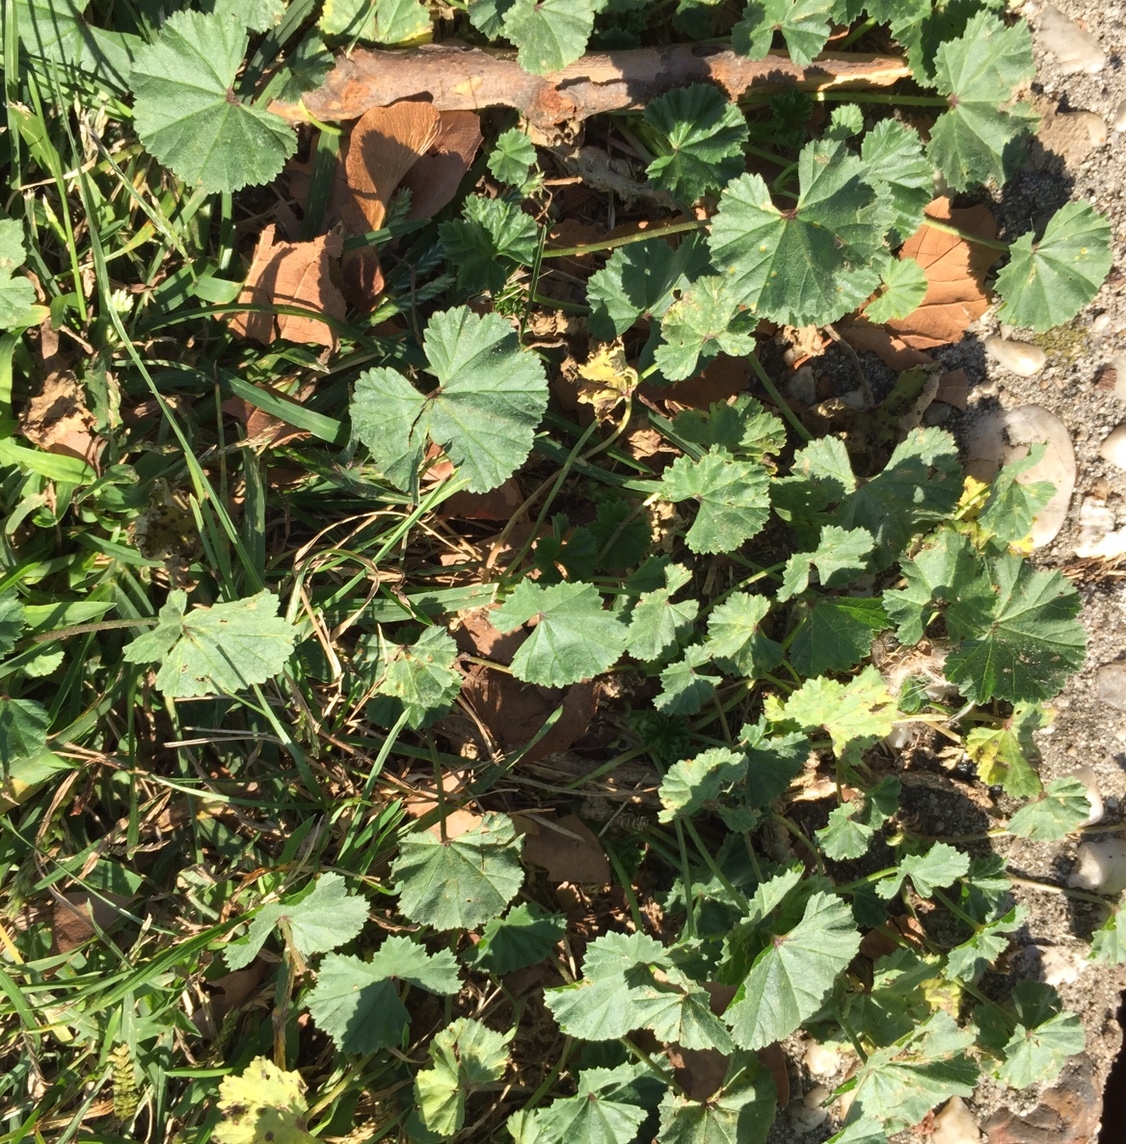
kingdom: Plantae
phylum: Tracheophyta
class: Magnoliopsida
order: Malvales
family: Malvaceae
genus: Malva
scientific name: Malva neglecta
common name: Common mallow
